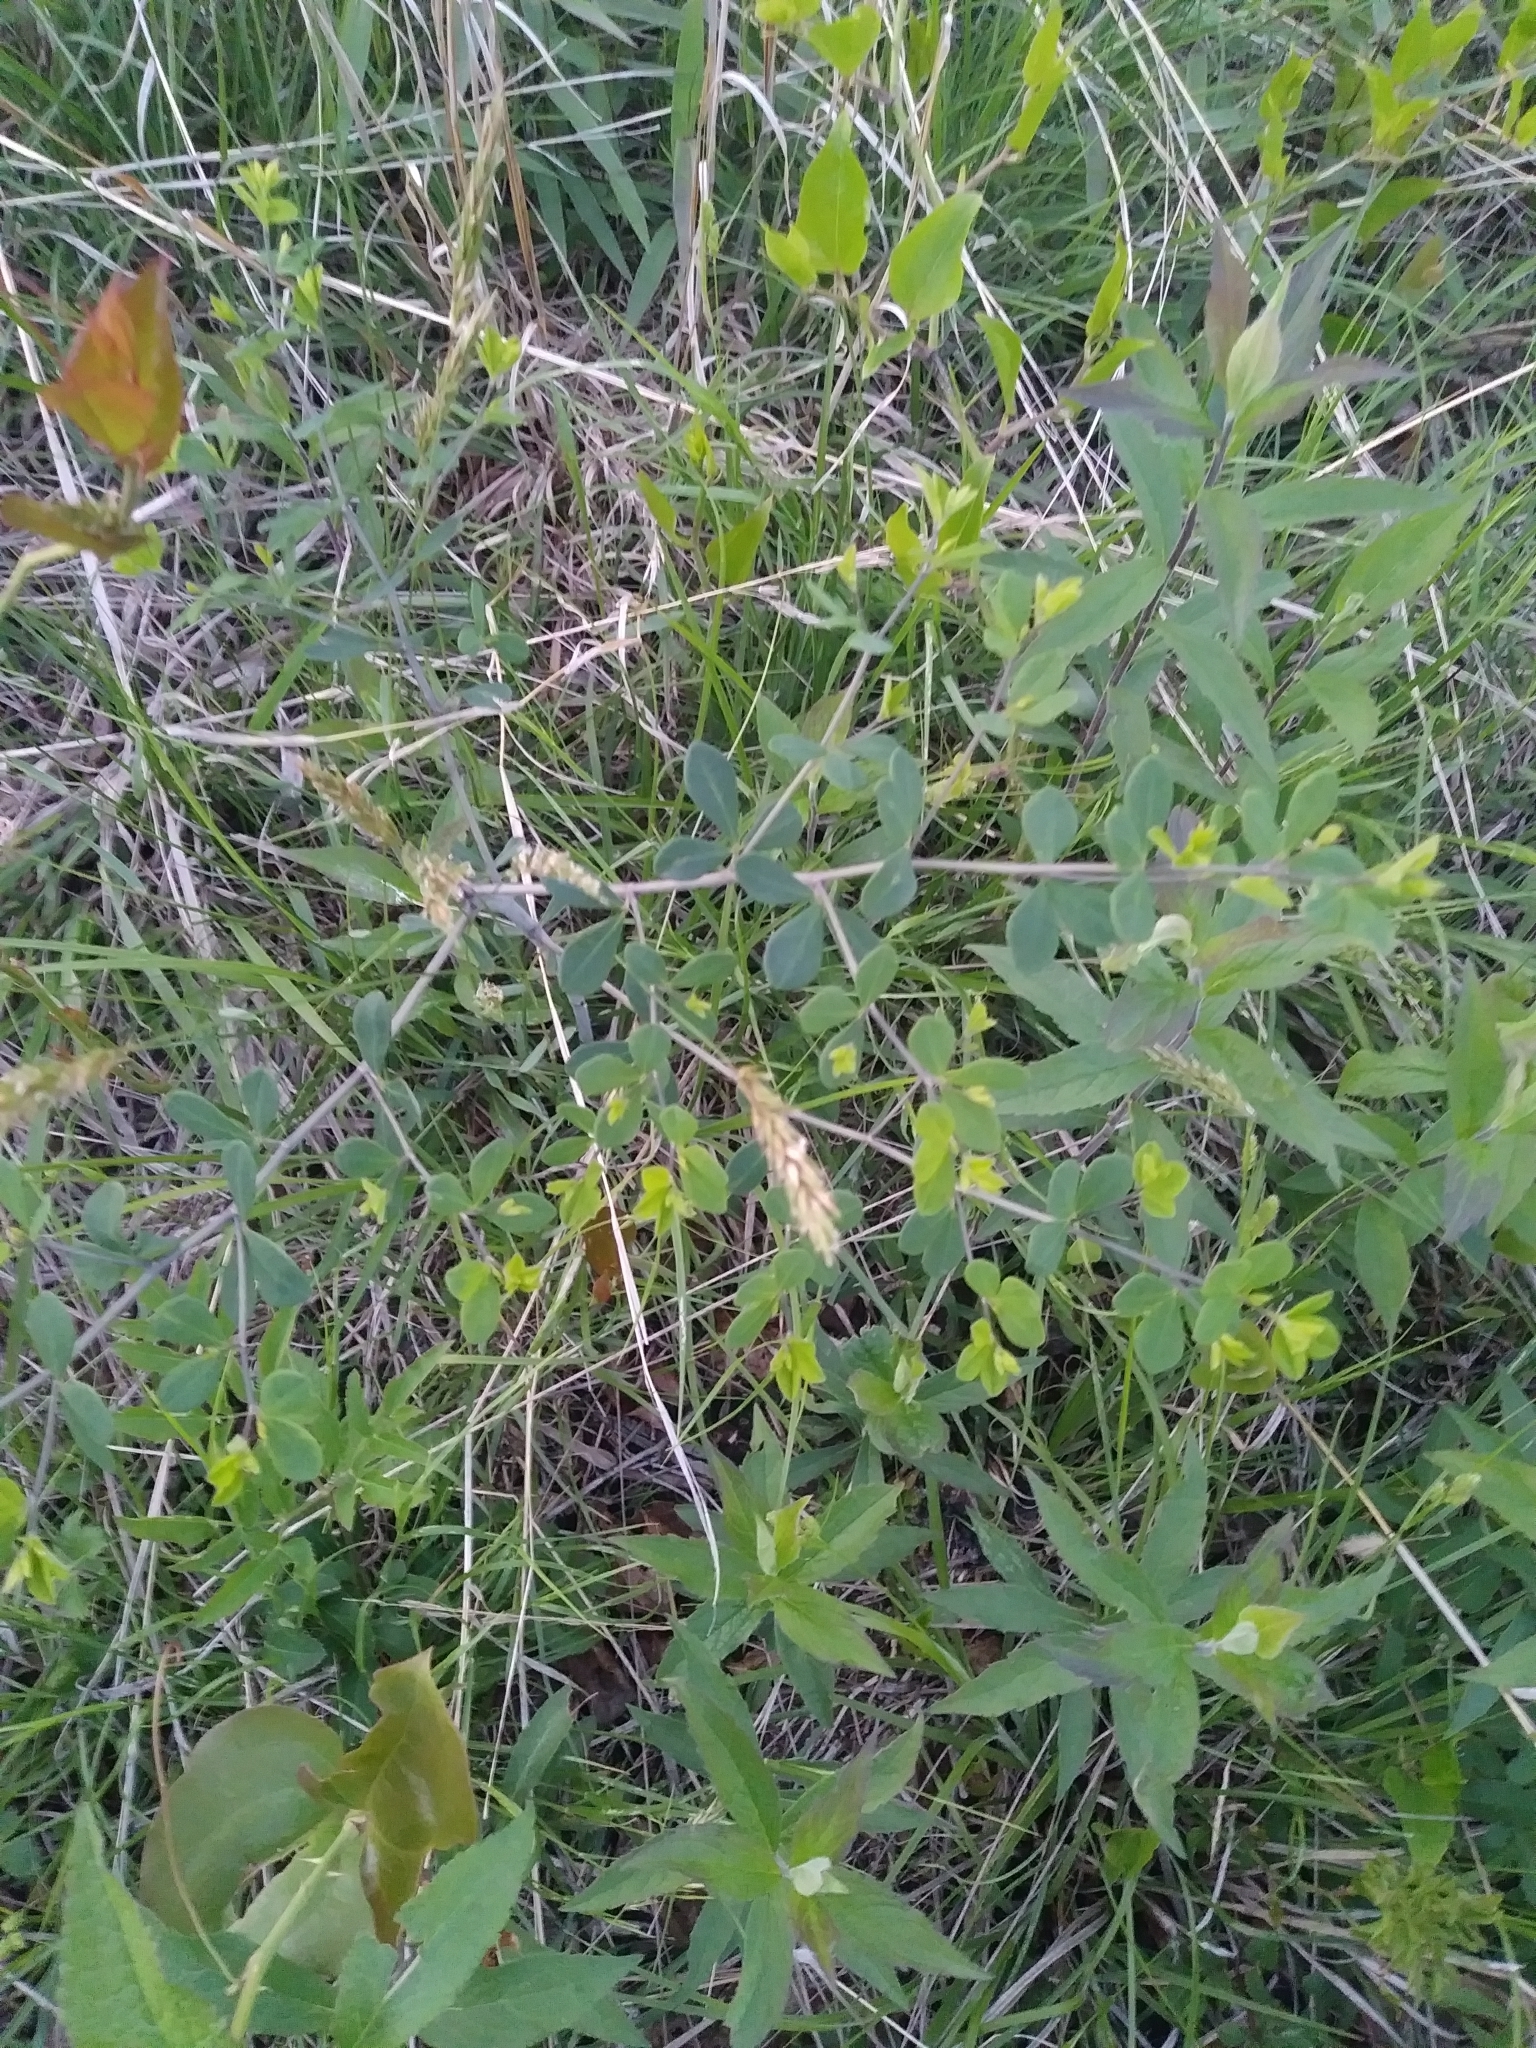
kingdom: Plantae
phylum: Tracheophyta
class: Magnoliopsida
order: Fabales
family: Fabaceae
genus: Baptisia
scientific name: Baptisia tinctoria
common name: Wild indigo
